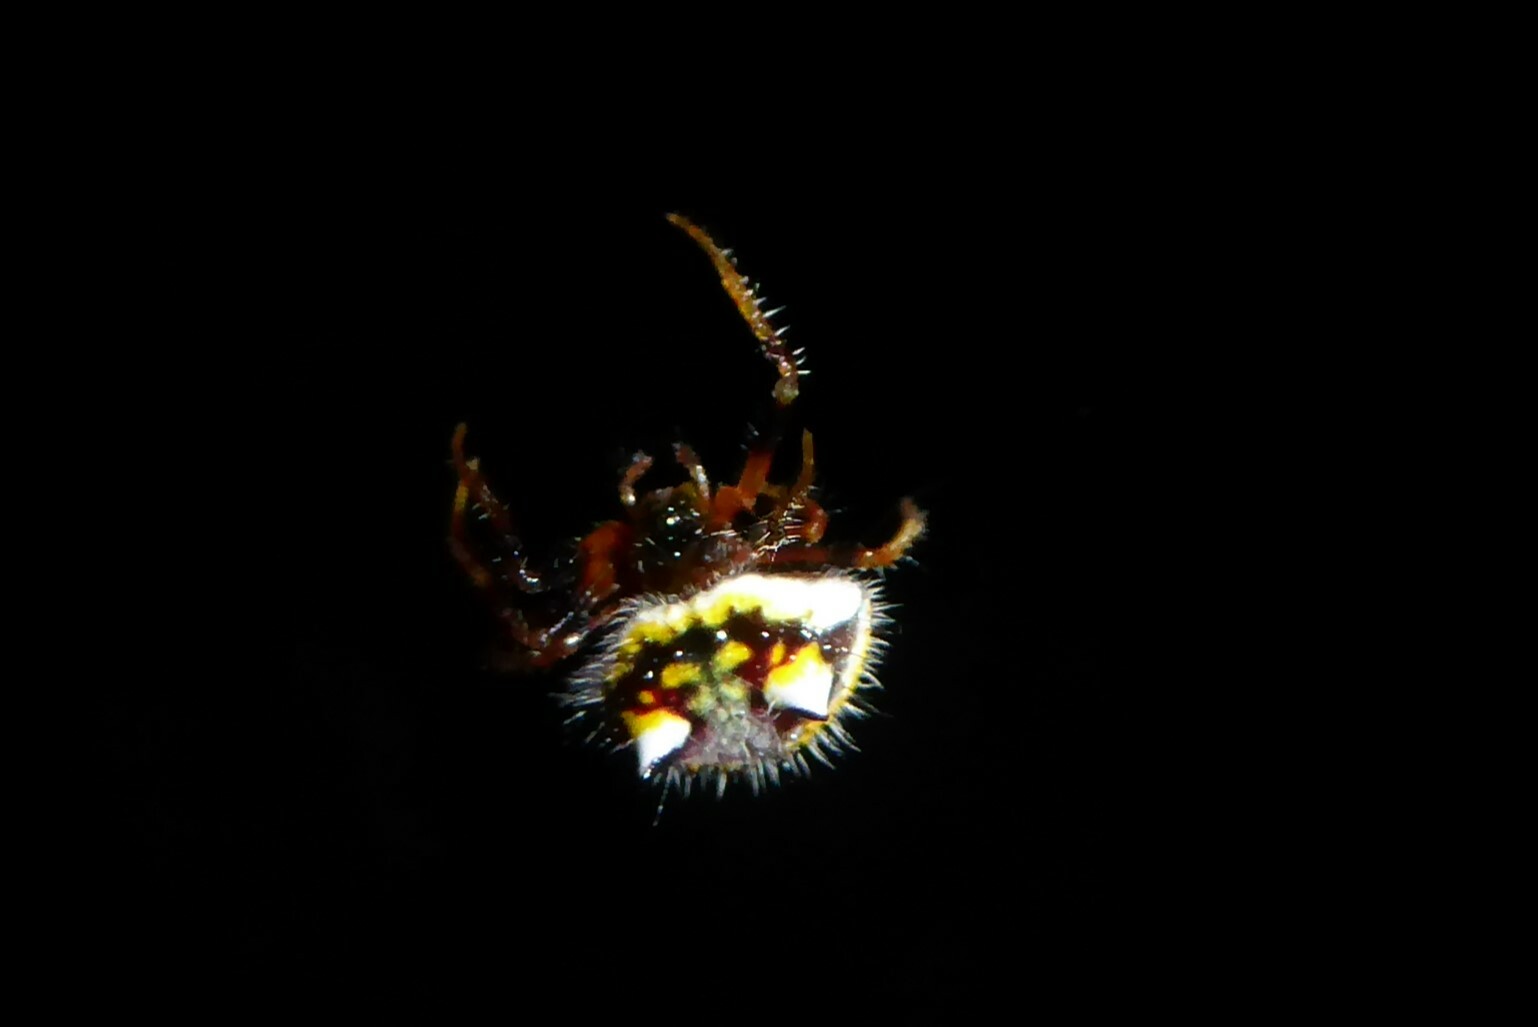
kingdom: Animalia
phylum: Arthropoda
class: Arachnida
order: Araneae
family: Araneidae
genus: Poecilopachys
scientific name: Poecilopachys australasia
